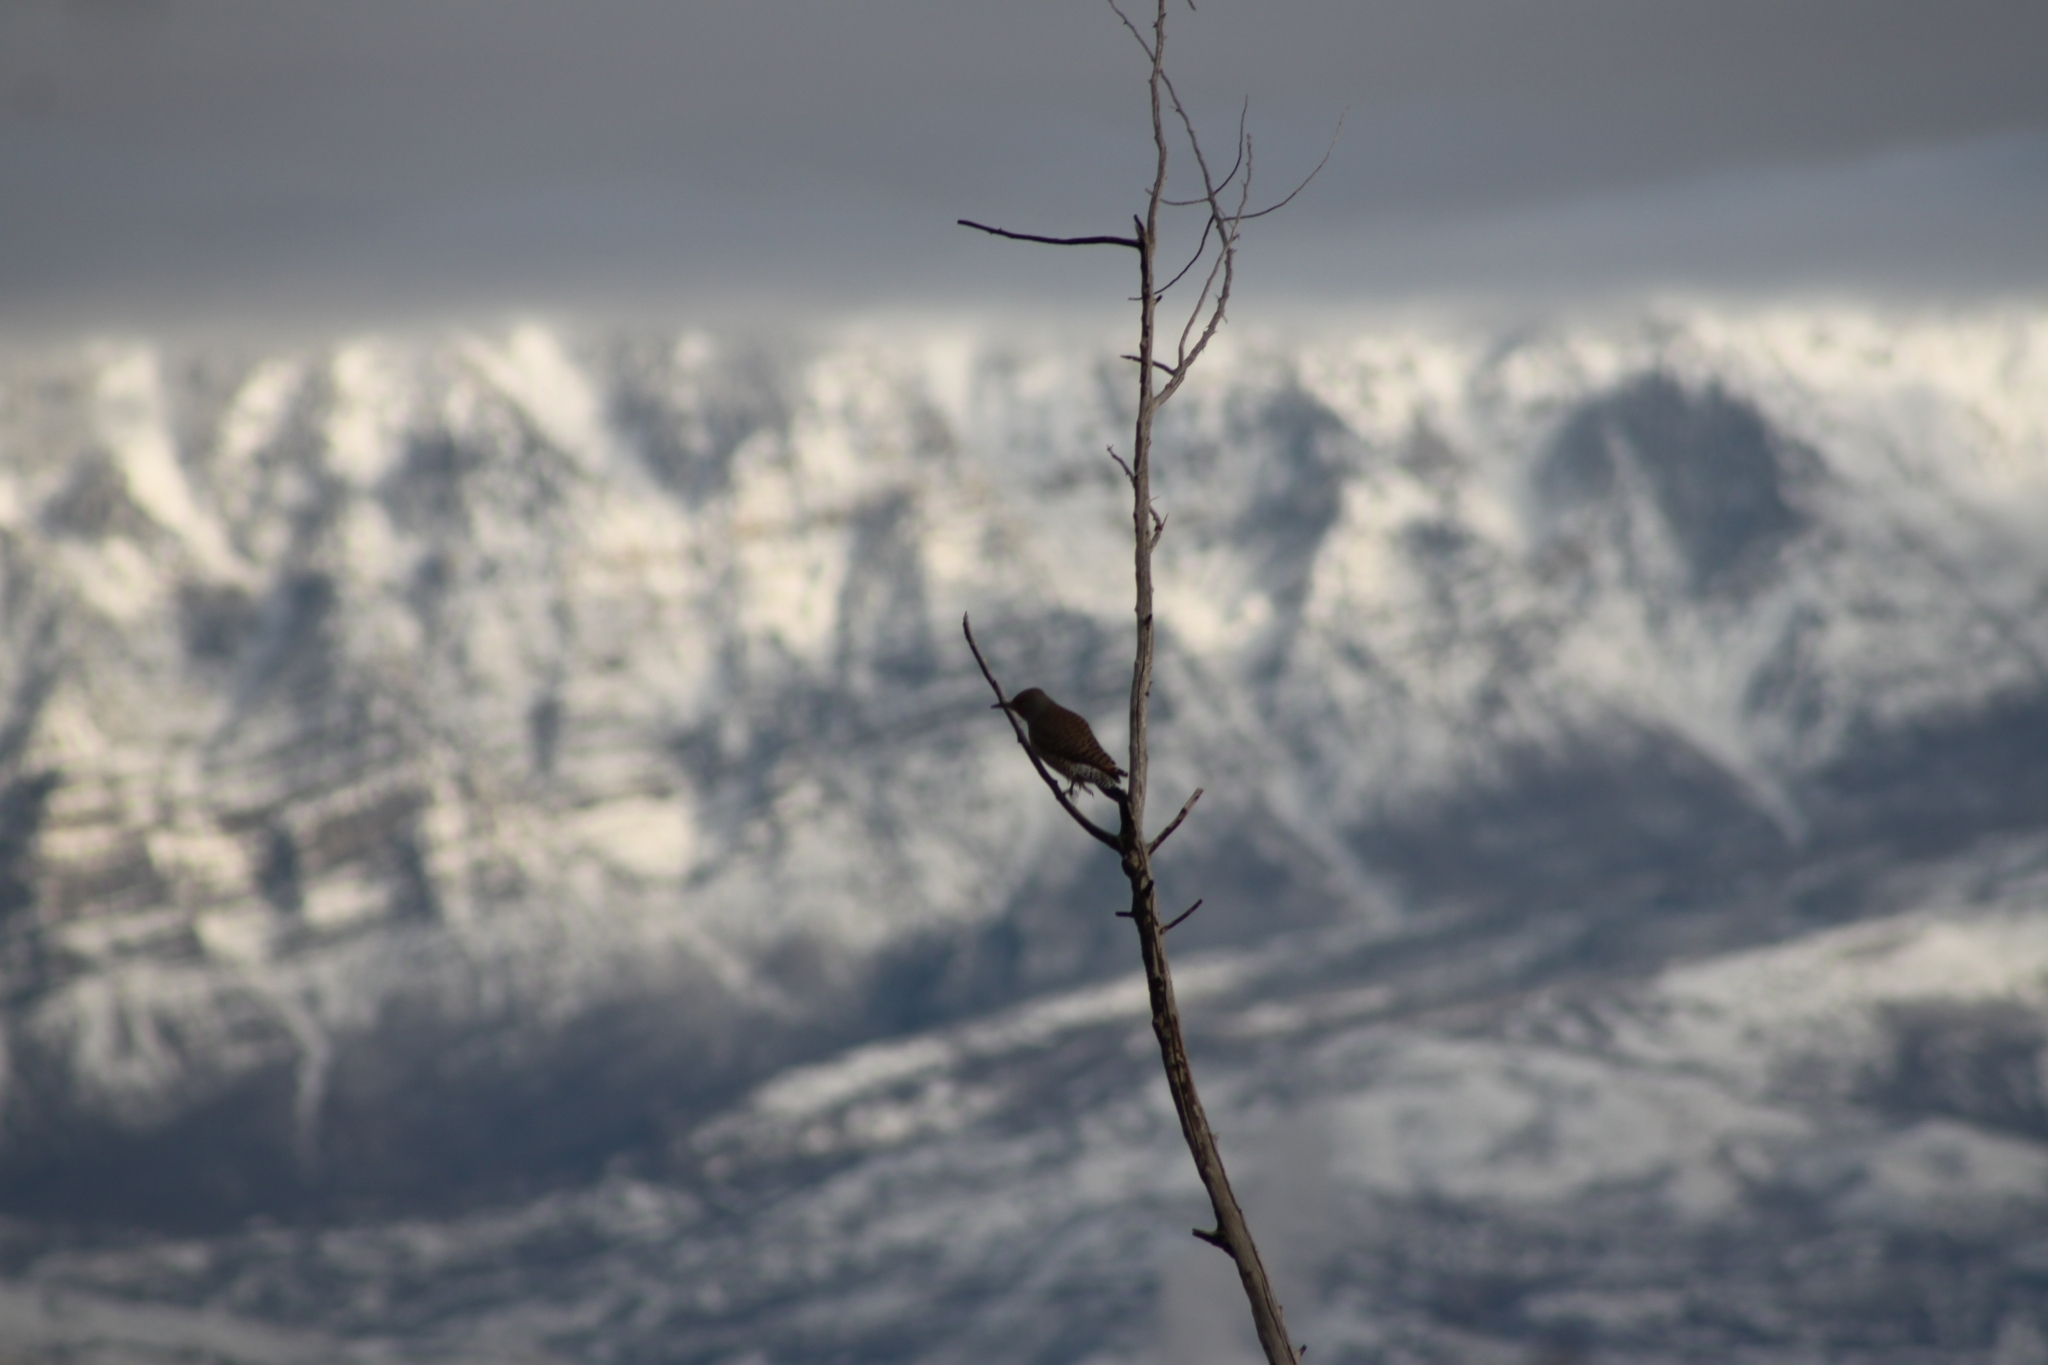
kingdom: Animalia
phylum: Chordata
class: Aves
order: Piciformes
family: Picidae
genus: Colaptes
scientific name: Colaptes auratus
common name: Northern flicker
